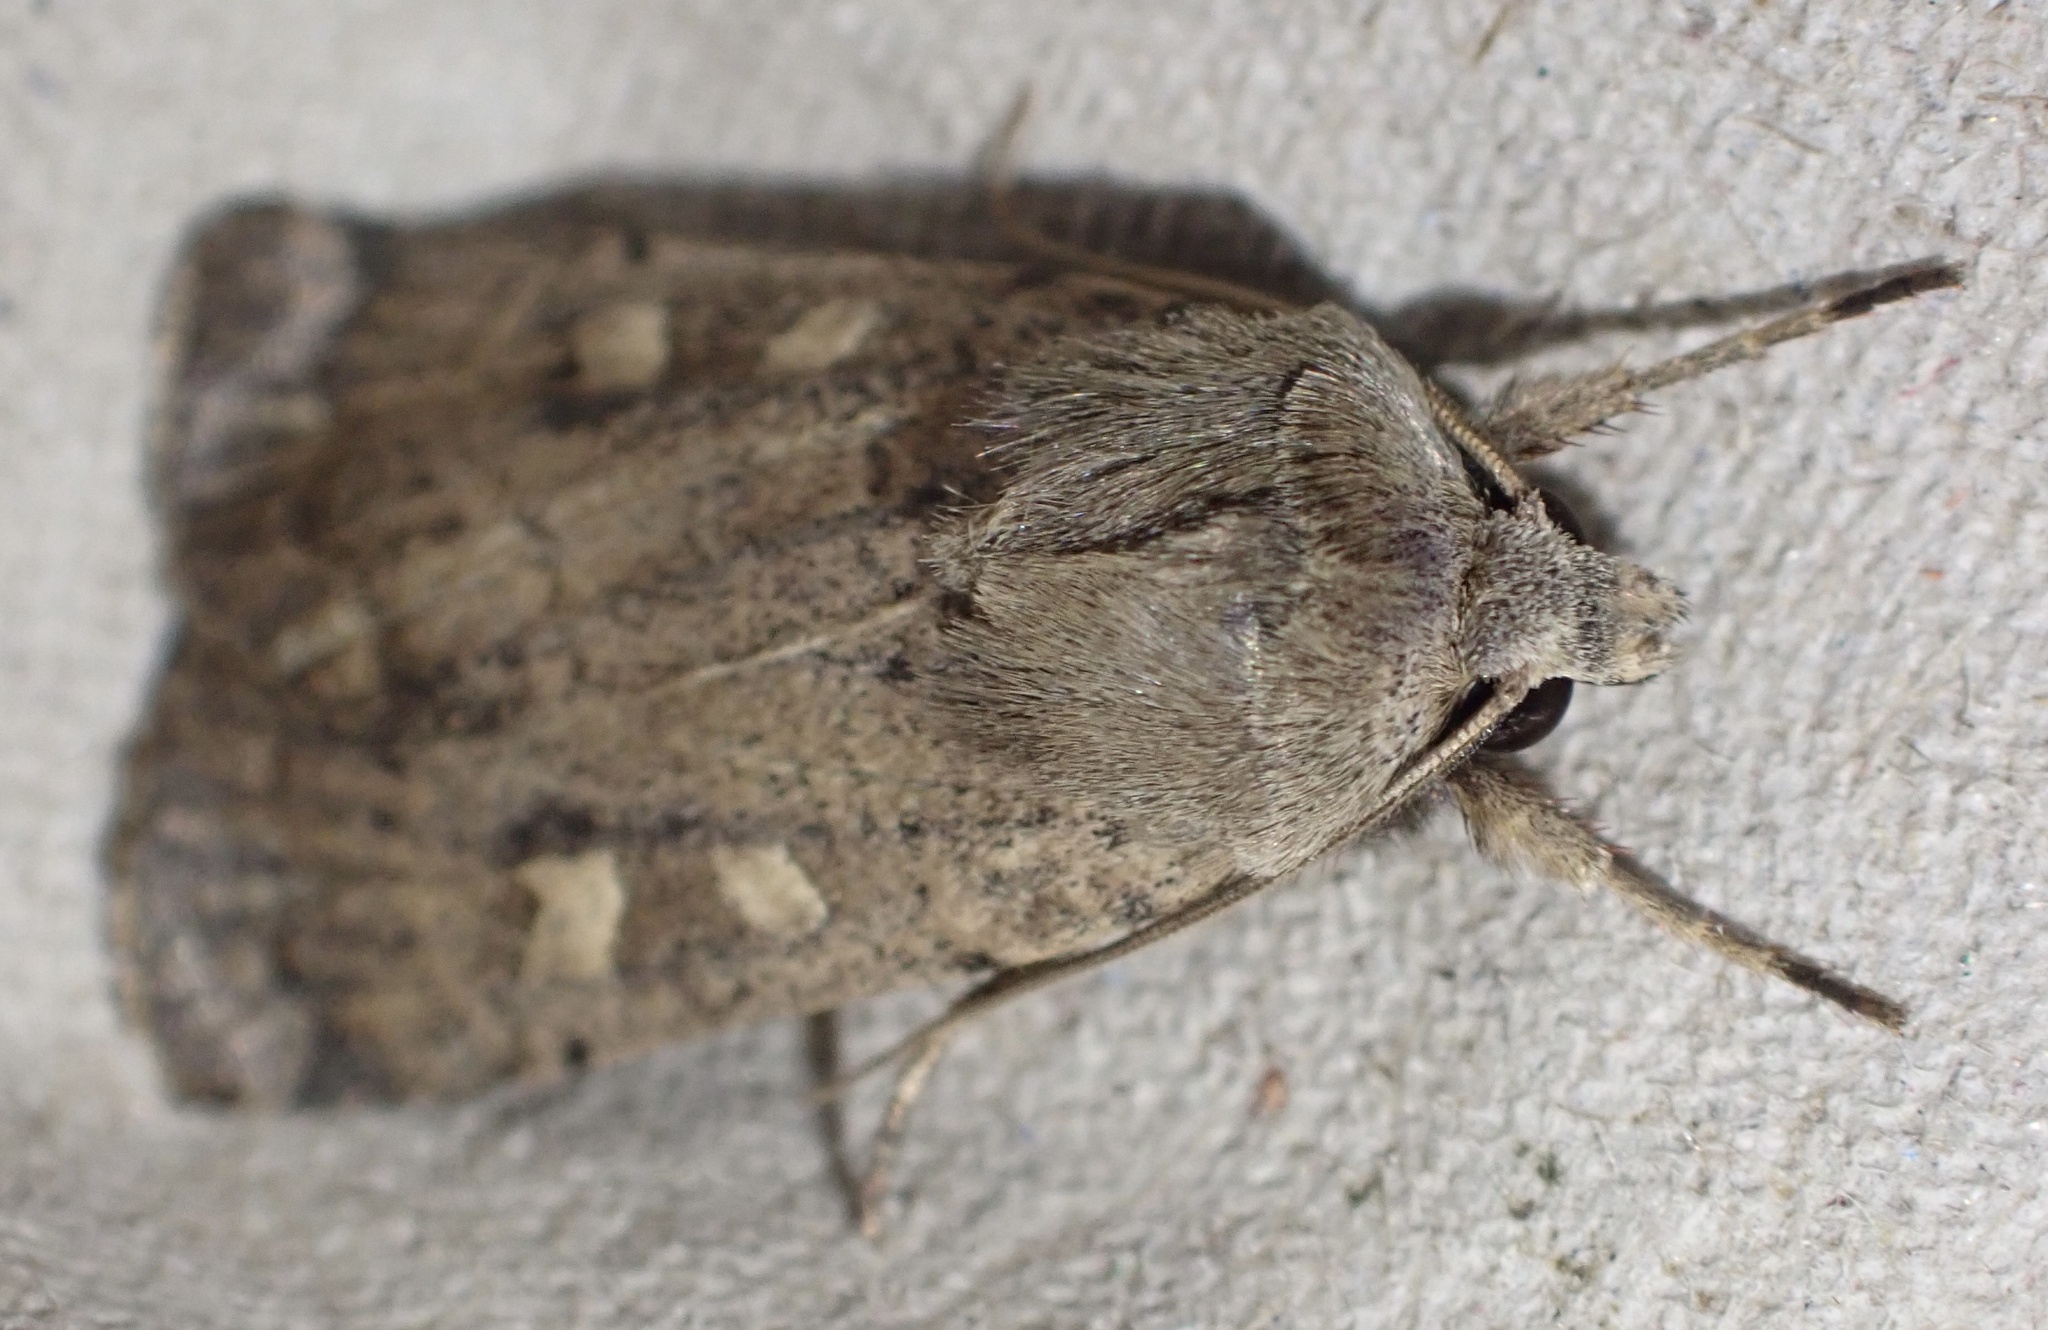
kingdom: Animalia
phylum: Arthropoda
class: Insecta
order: Lepidoptera
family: Noctuidae
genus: Xestia
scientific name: Xestia xanthographa
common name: Square-spot rustic
